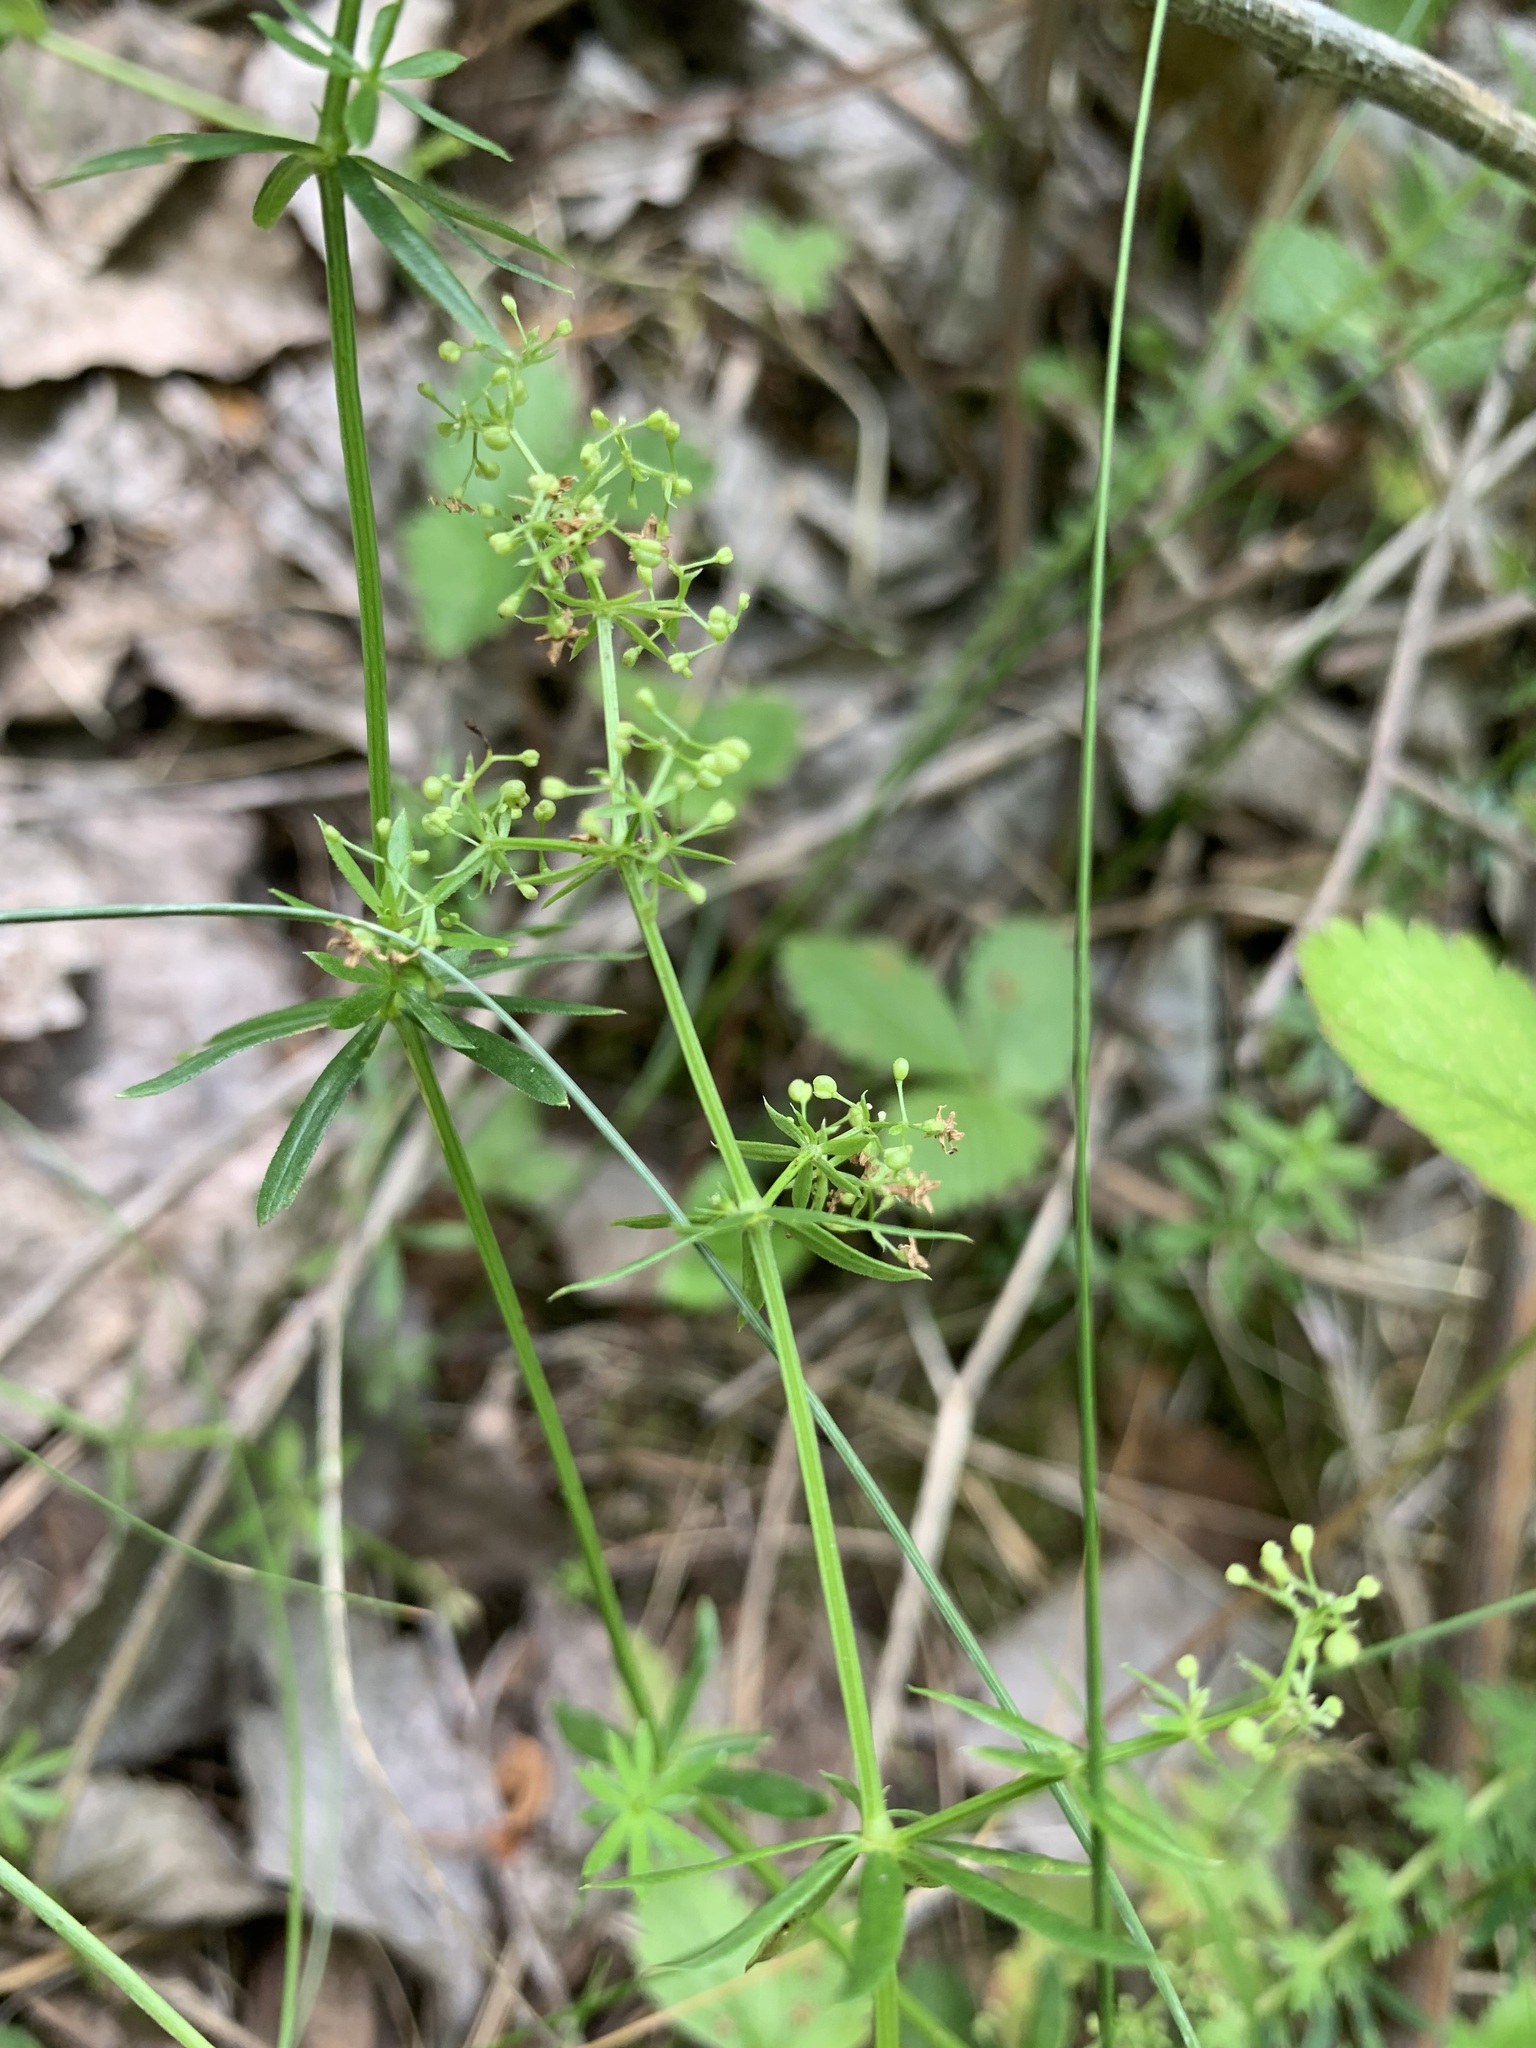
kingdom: Plantae
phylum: Tracheophyta
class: Magnoliopsida
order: Gentianales
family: Rubiaceae
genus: Galium
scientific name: Galium mollugo
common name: Hedge bedstraw
